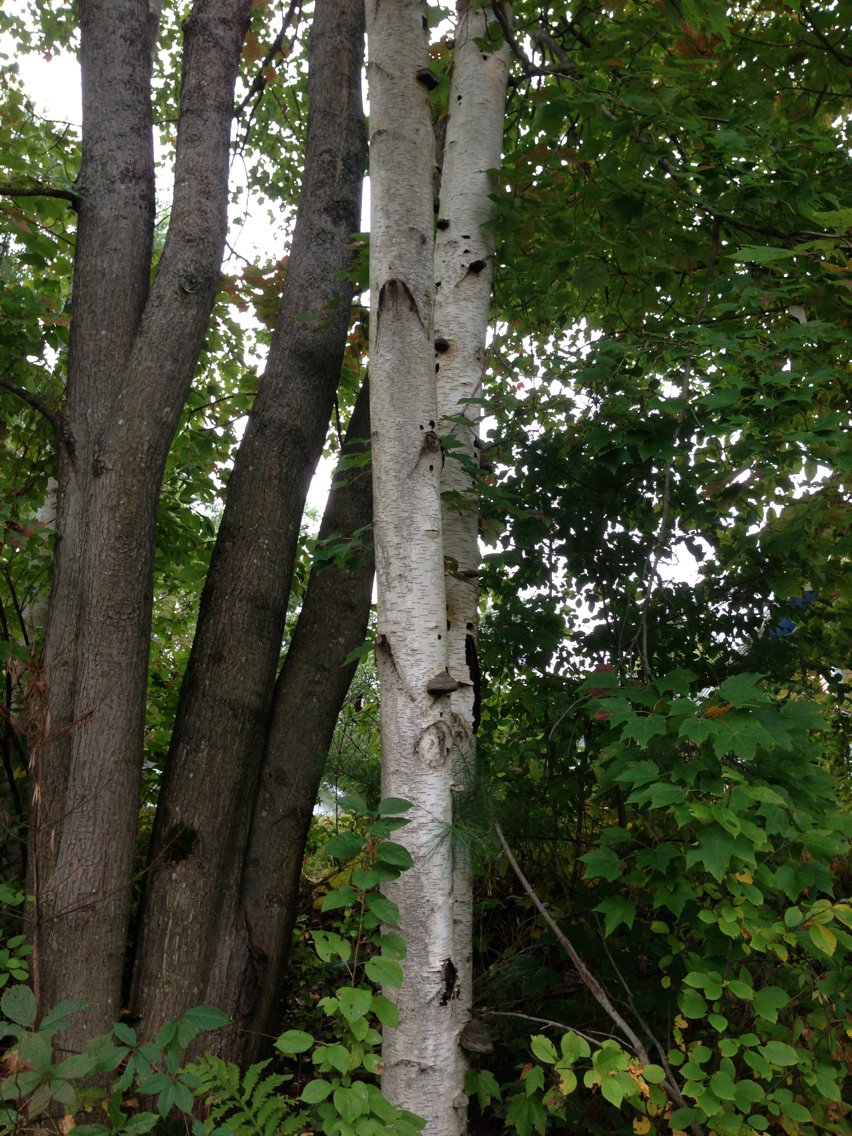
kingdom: Plantae
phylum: Tracheophyta
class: Magnoliopsida
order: Fagales
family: Betulaceae
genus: Betula
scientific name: Betula populifolia
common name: Fire birch
